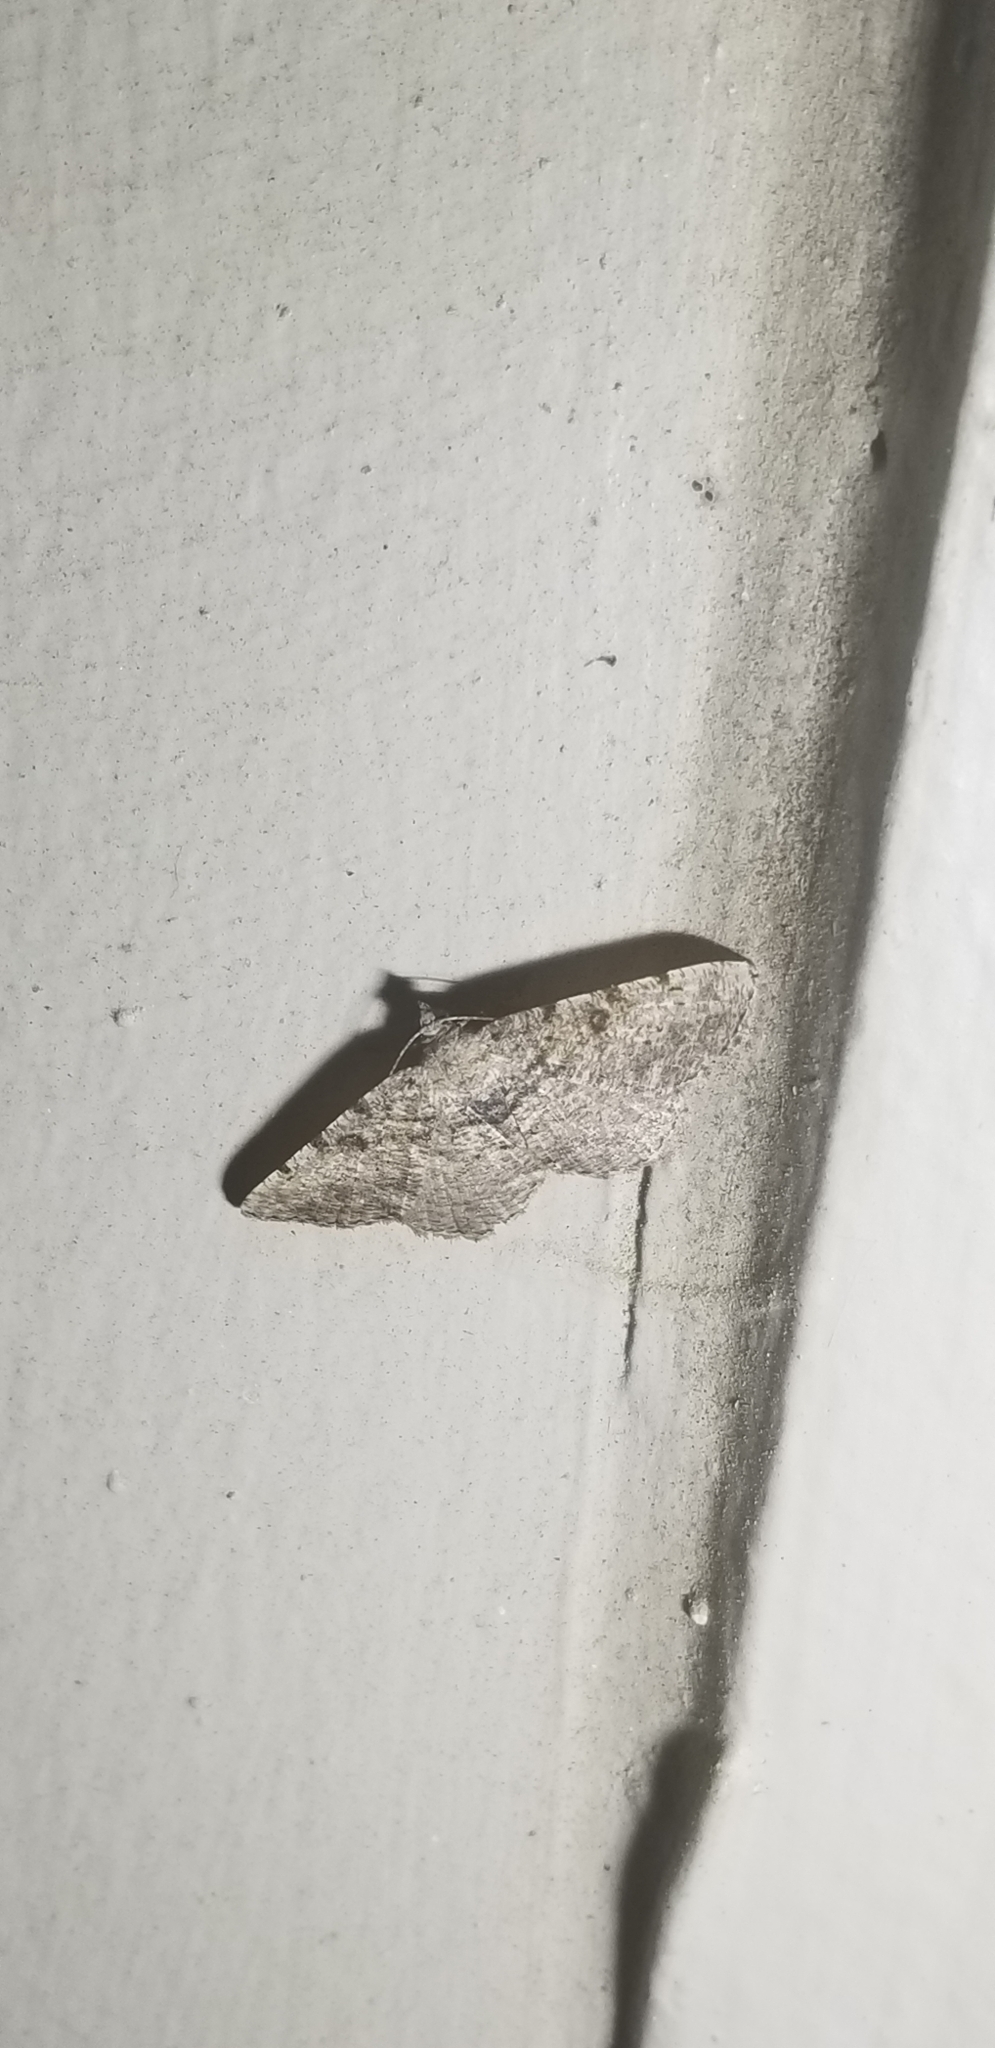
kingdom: Animalia
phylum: Arthropoda
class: Insecta
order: Lepidoptera
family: Geometridae
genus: Digrammia
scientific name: Digrammia gnophosaria
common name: Hollow-spotted angle
